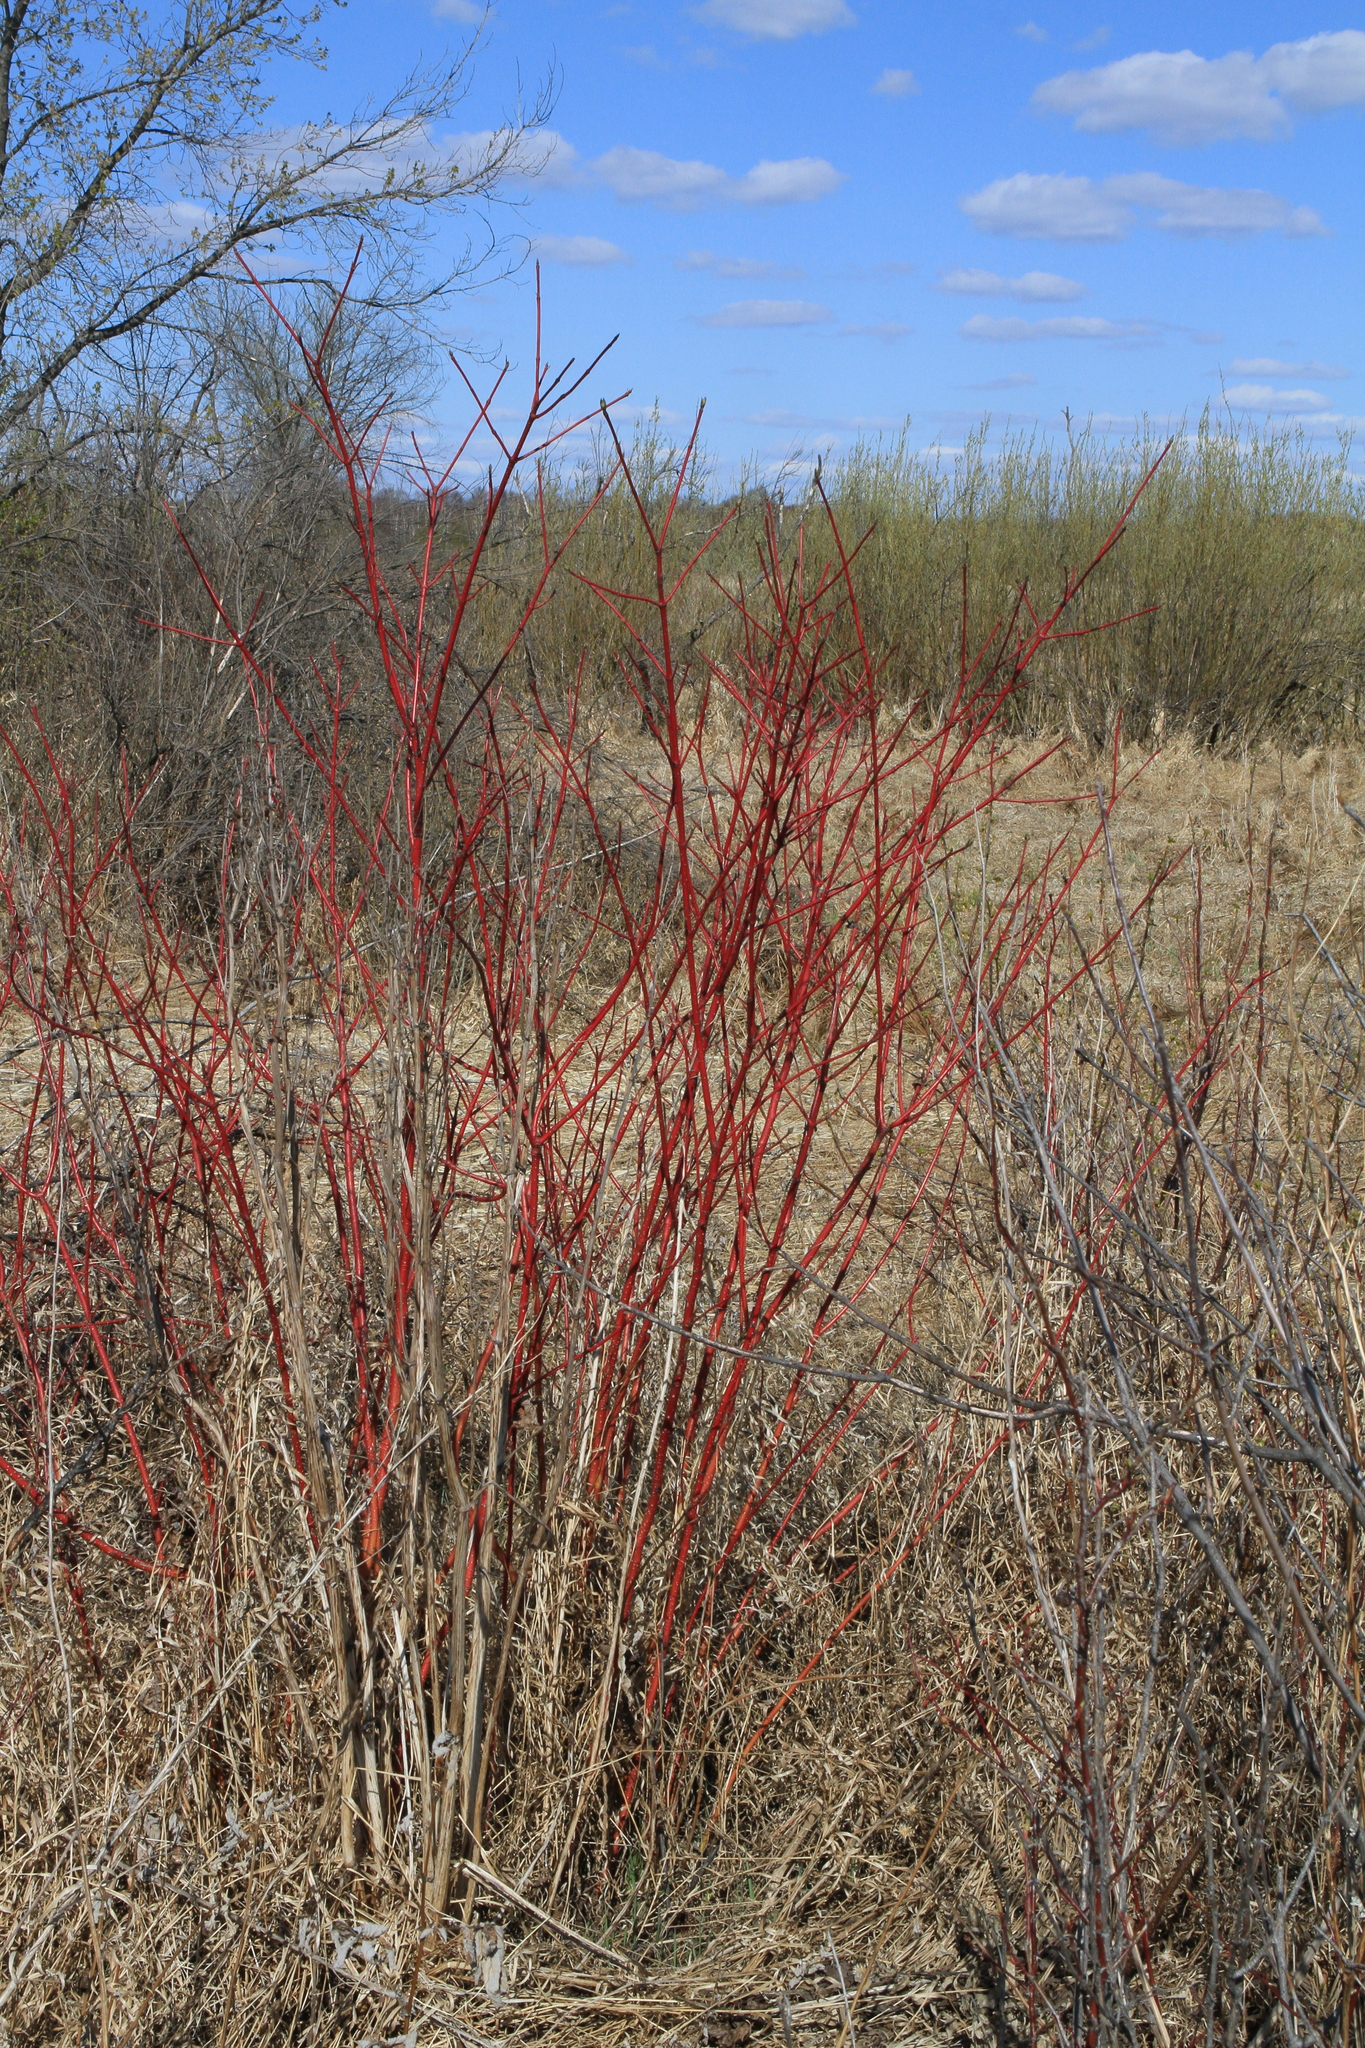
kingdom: Plantae
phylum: Tracheophyta
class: Magnoliopsida
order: Cornales
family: Cornaceae
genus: Cornus
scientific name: Cornus alba
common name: White dogwood
